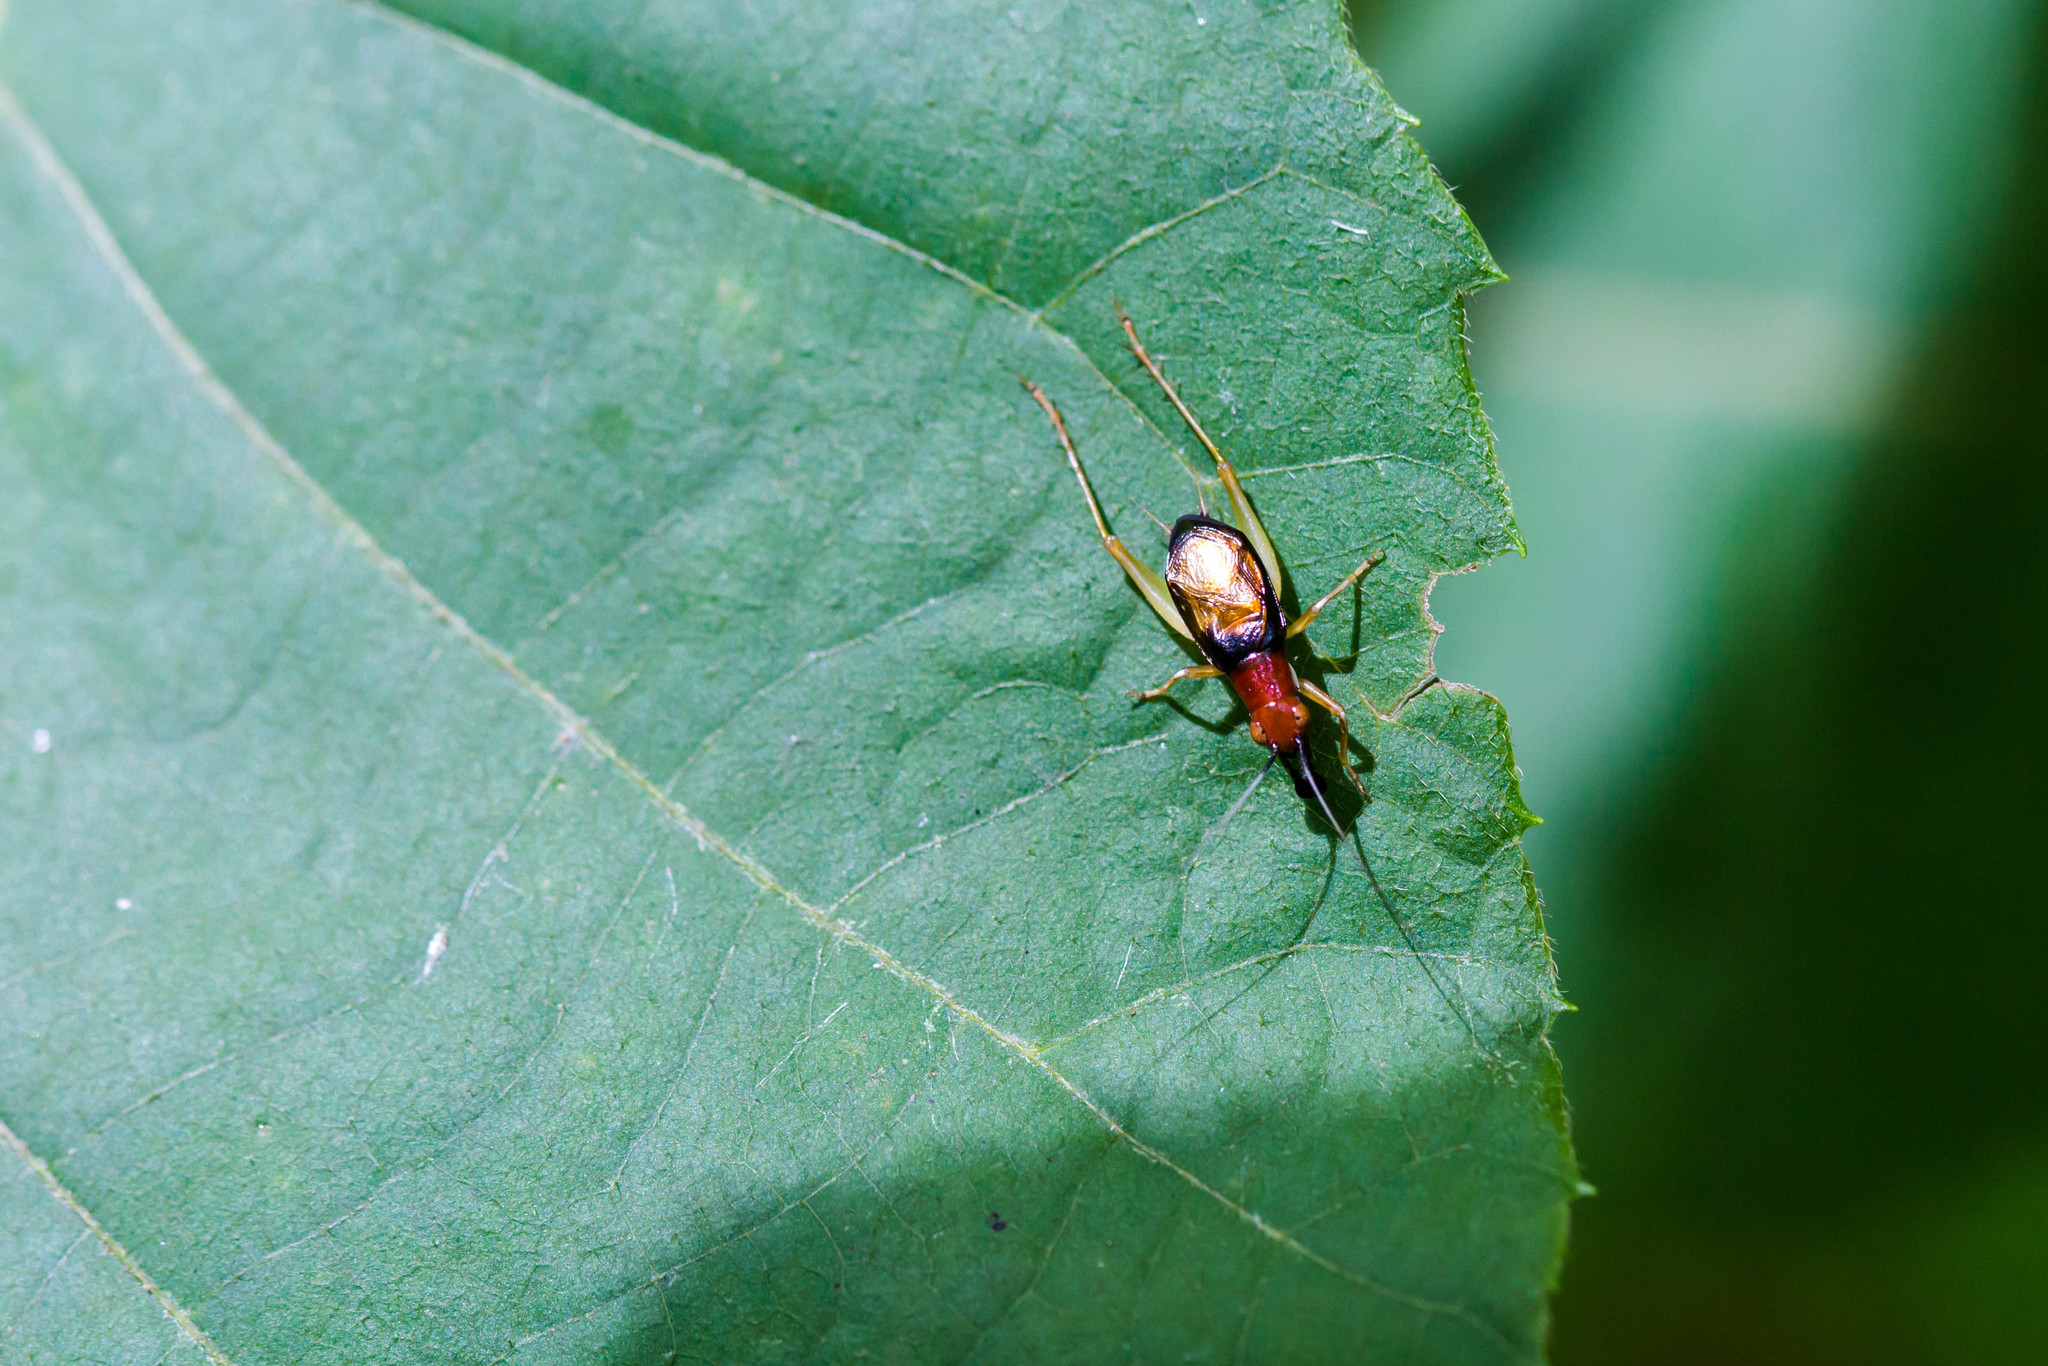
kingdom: Animalia
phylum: Arthropoda
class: Insecta
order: Orthoptera
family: Trigonidiidae
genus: Phyllopalpus
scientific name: Phyllopalpus pulchellus
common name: Handsome trig
